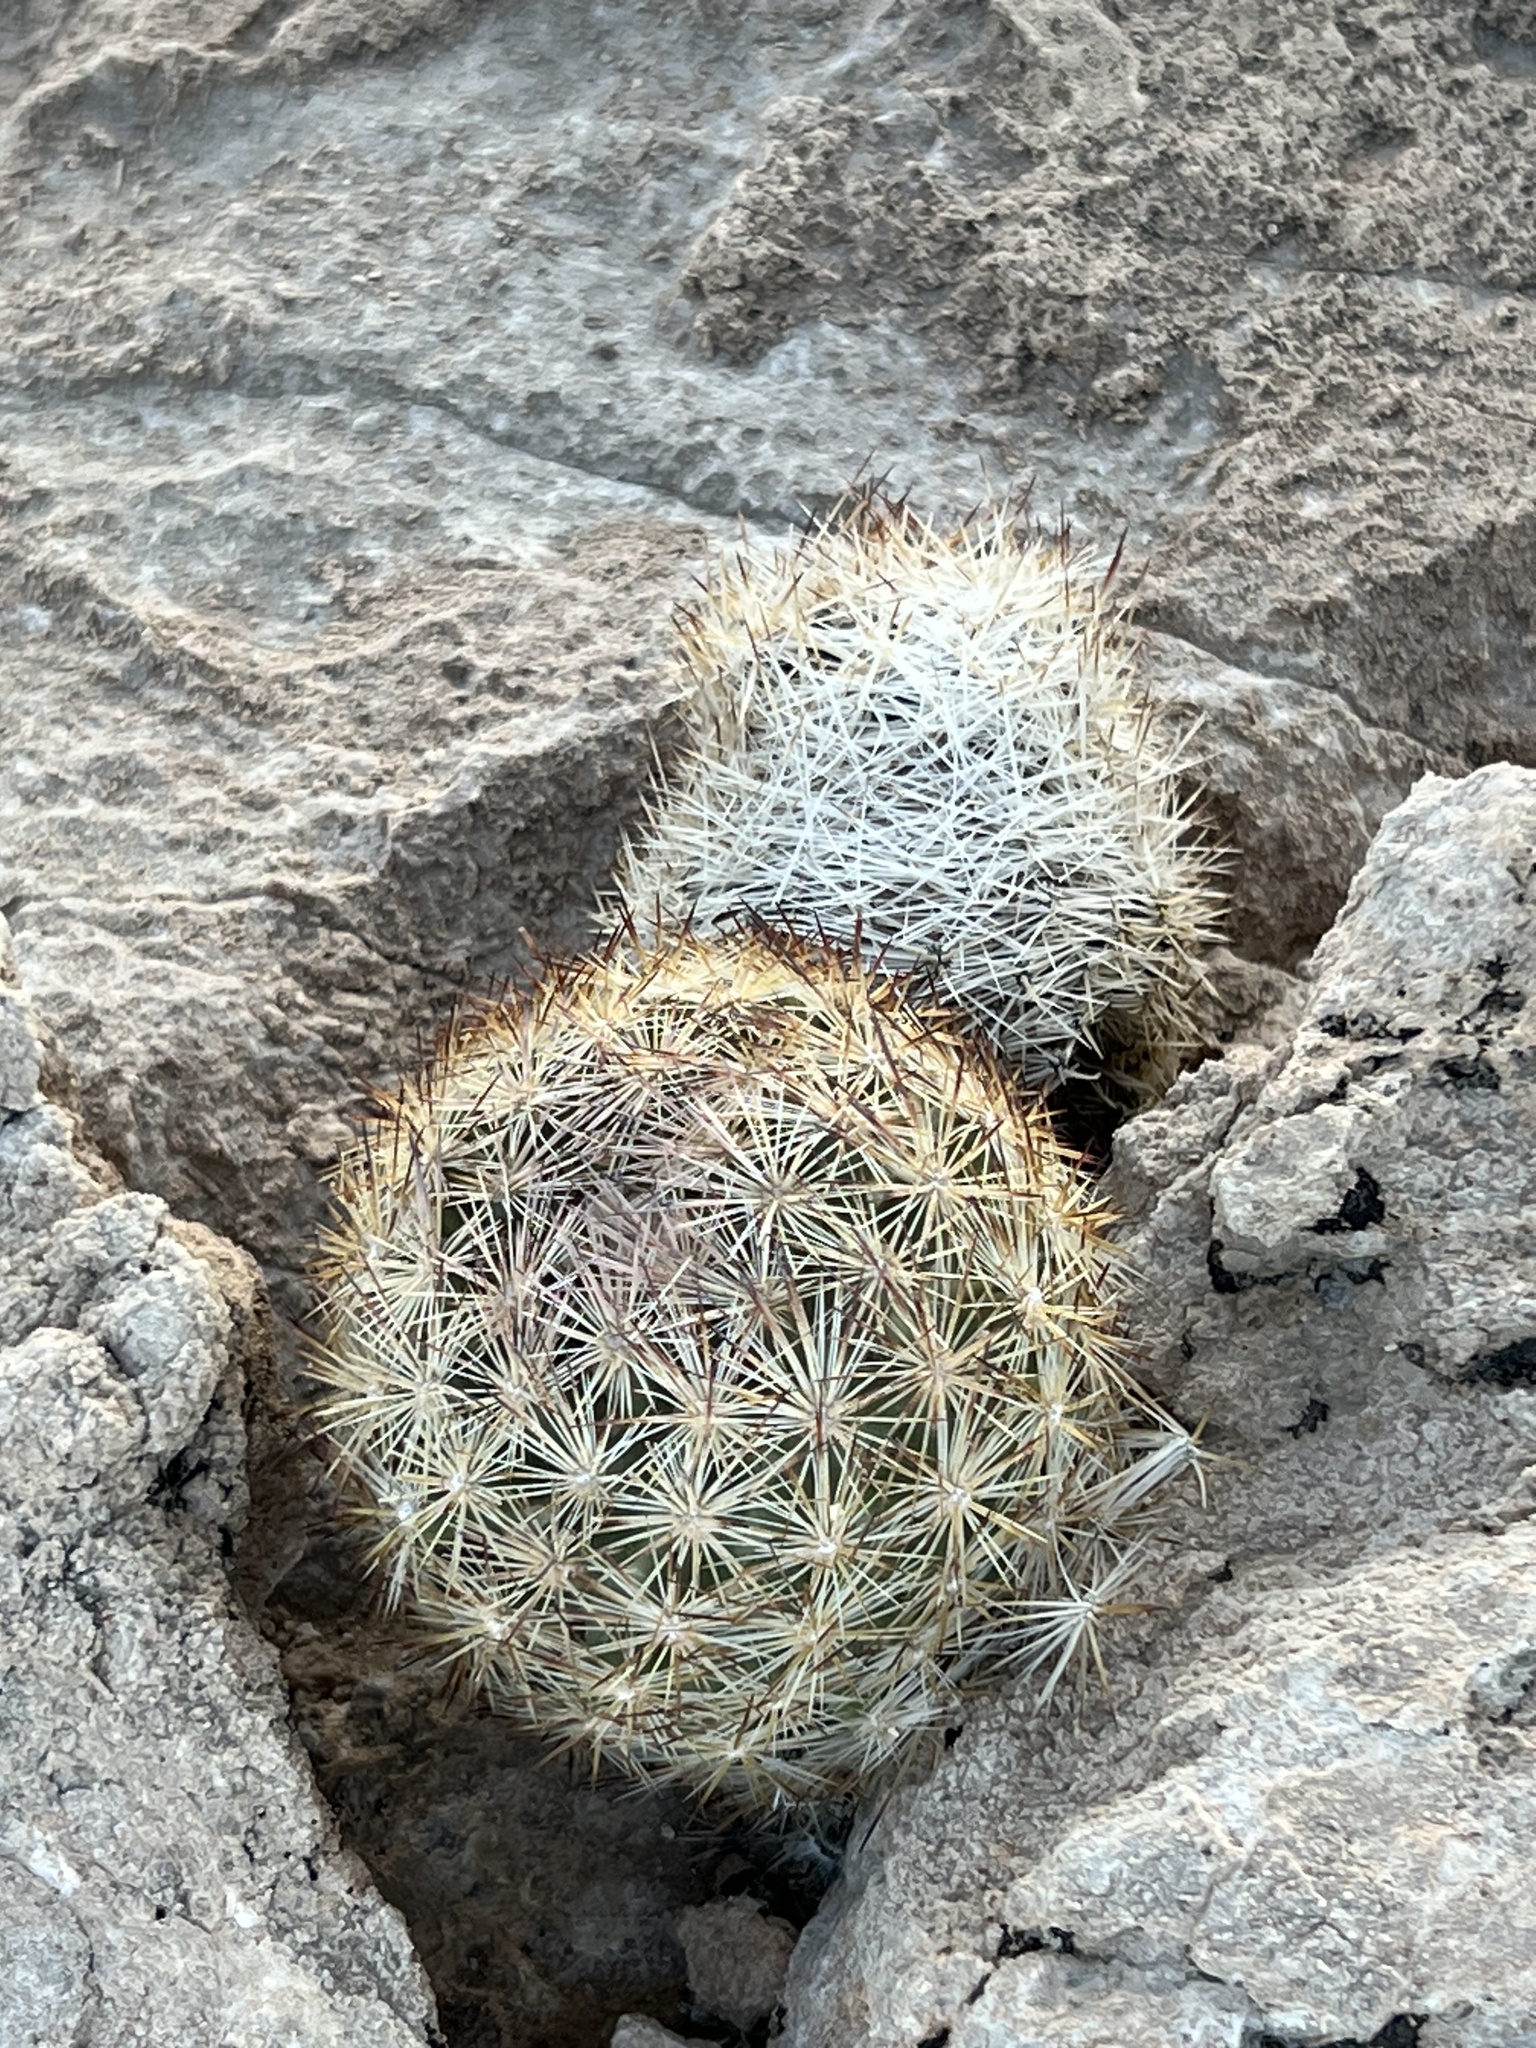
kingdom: Plantae
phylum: Tracheophyta
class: Magnoliopsida
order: Caryophyllales
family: Cactaceae
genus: Pelecyphora
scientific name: Pelecyphora dasyacantha
